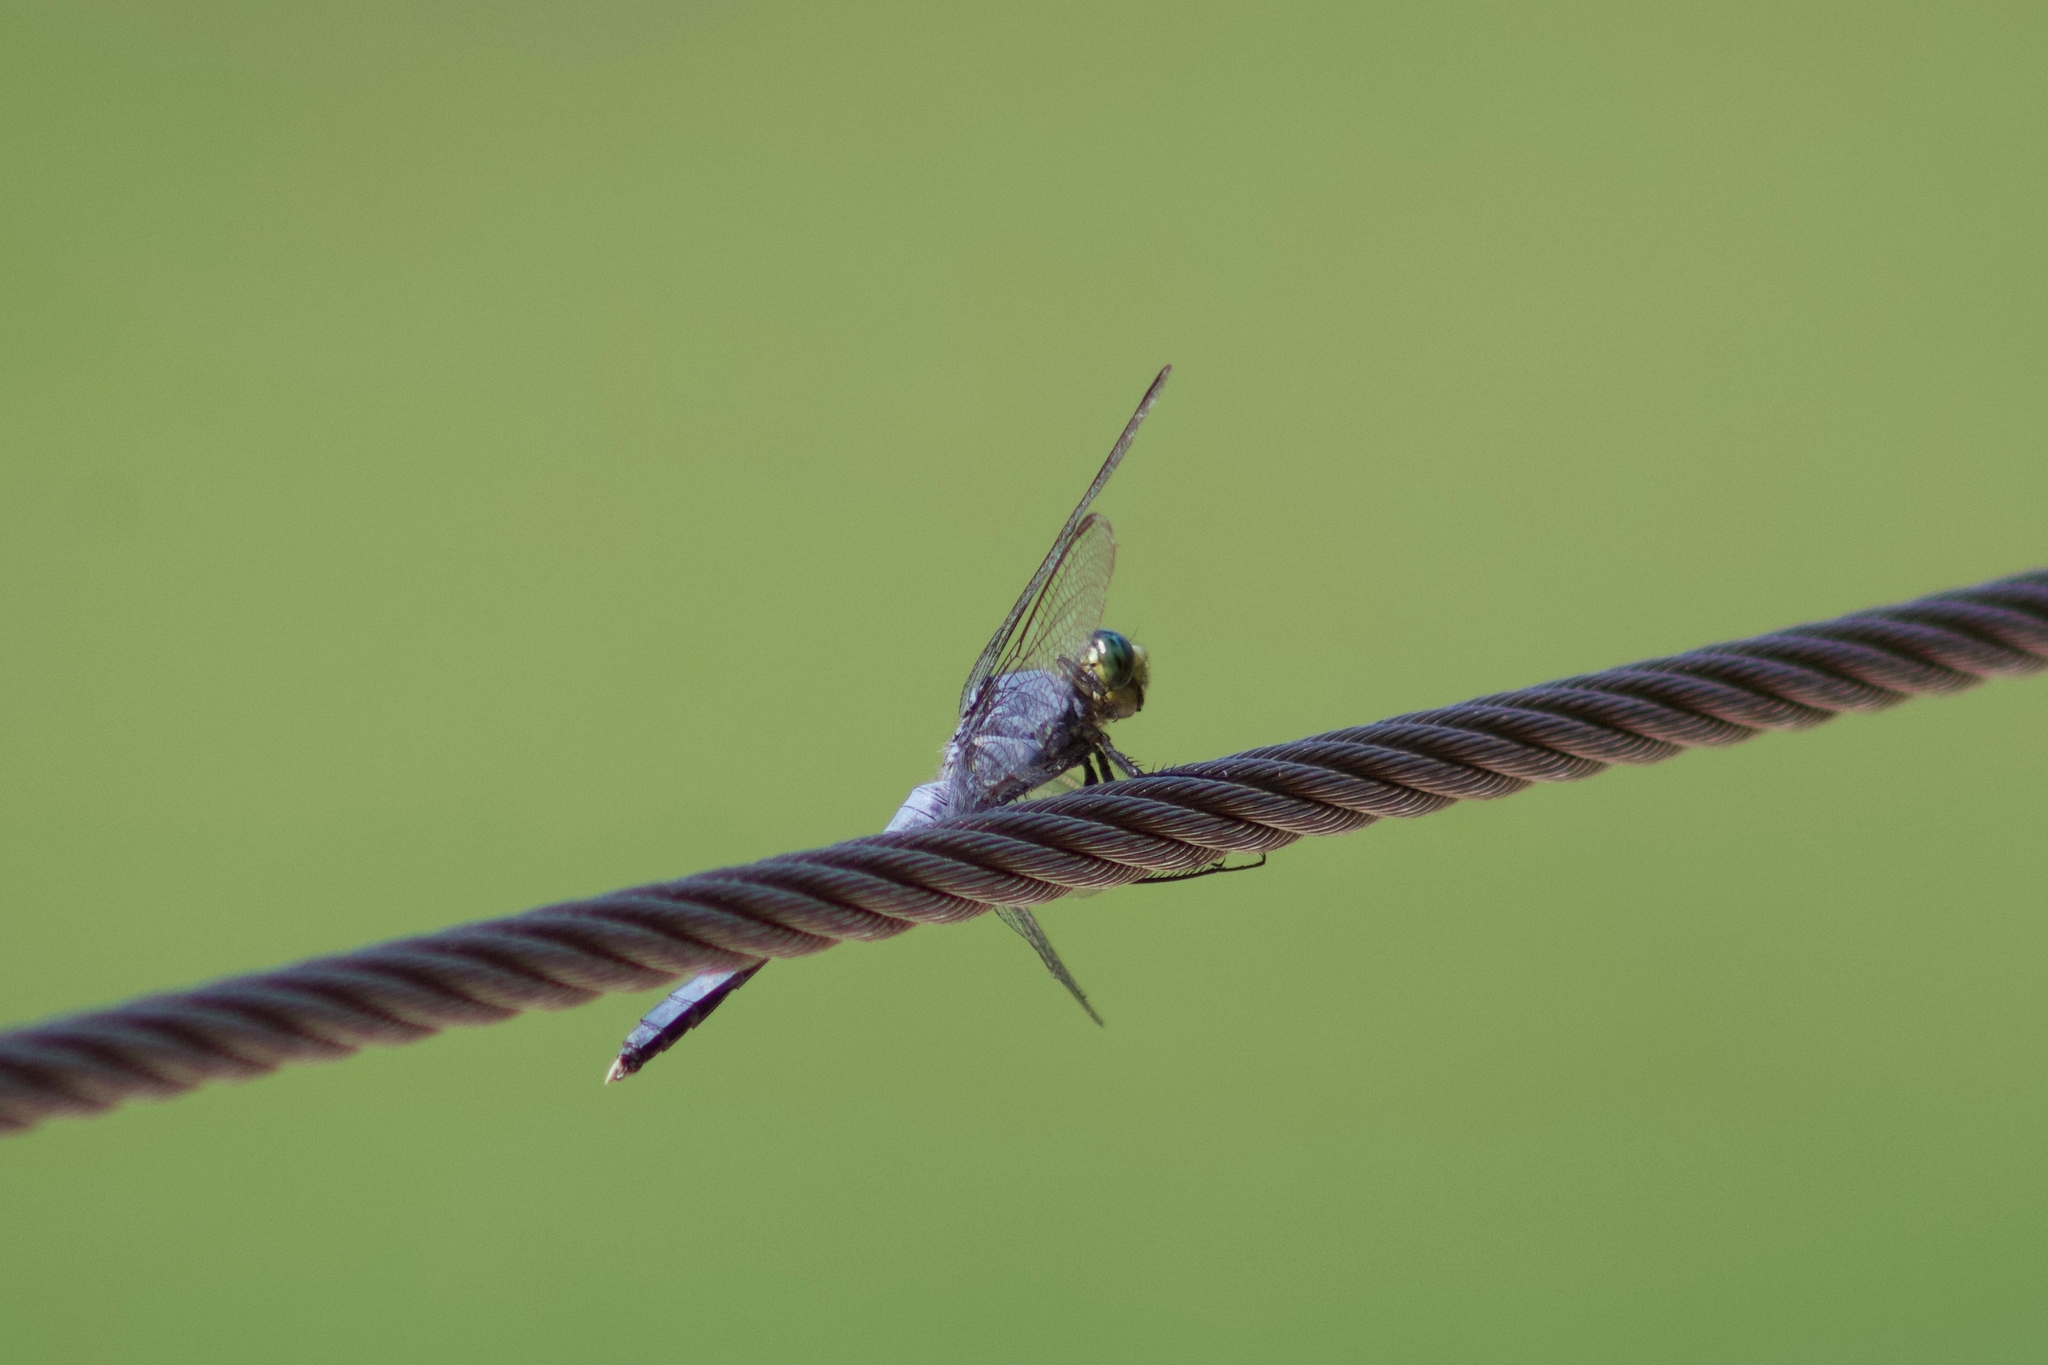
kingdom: Animalia
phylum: Arthropoda
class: Insecta
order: Odonata
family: Libellulidae
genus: Erythemis
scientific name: Erythemis simplicicollis
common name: Eastern pondhawk
